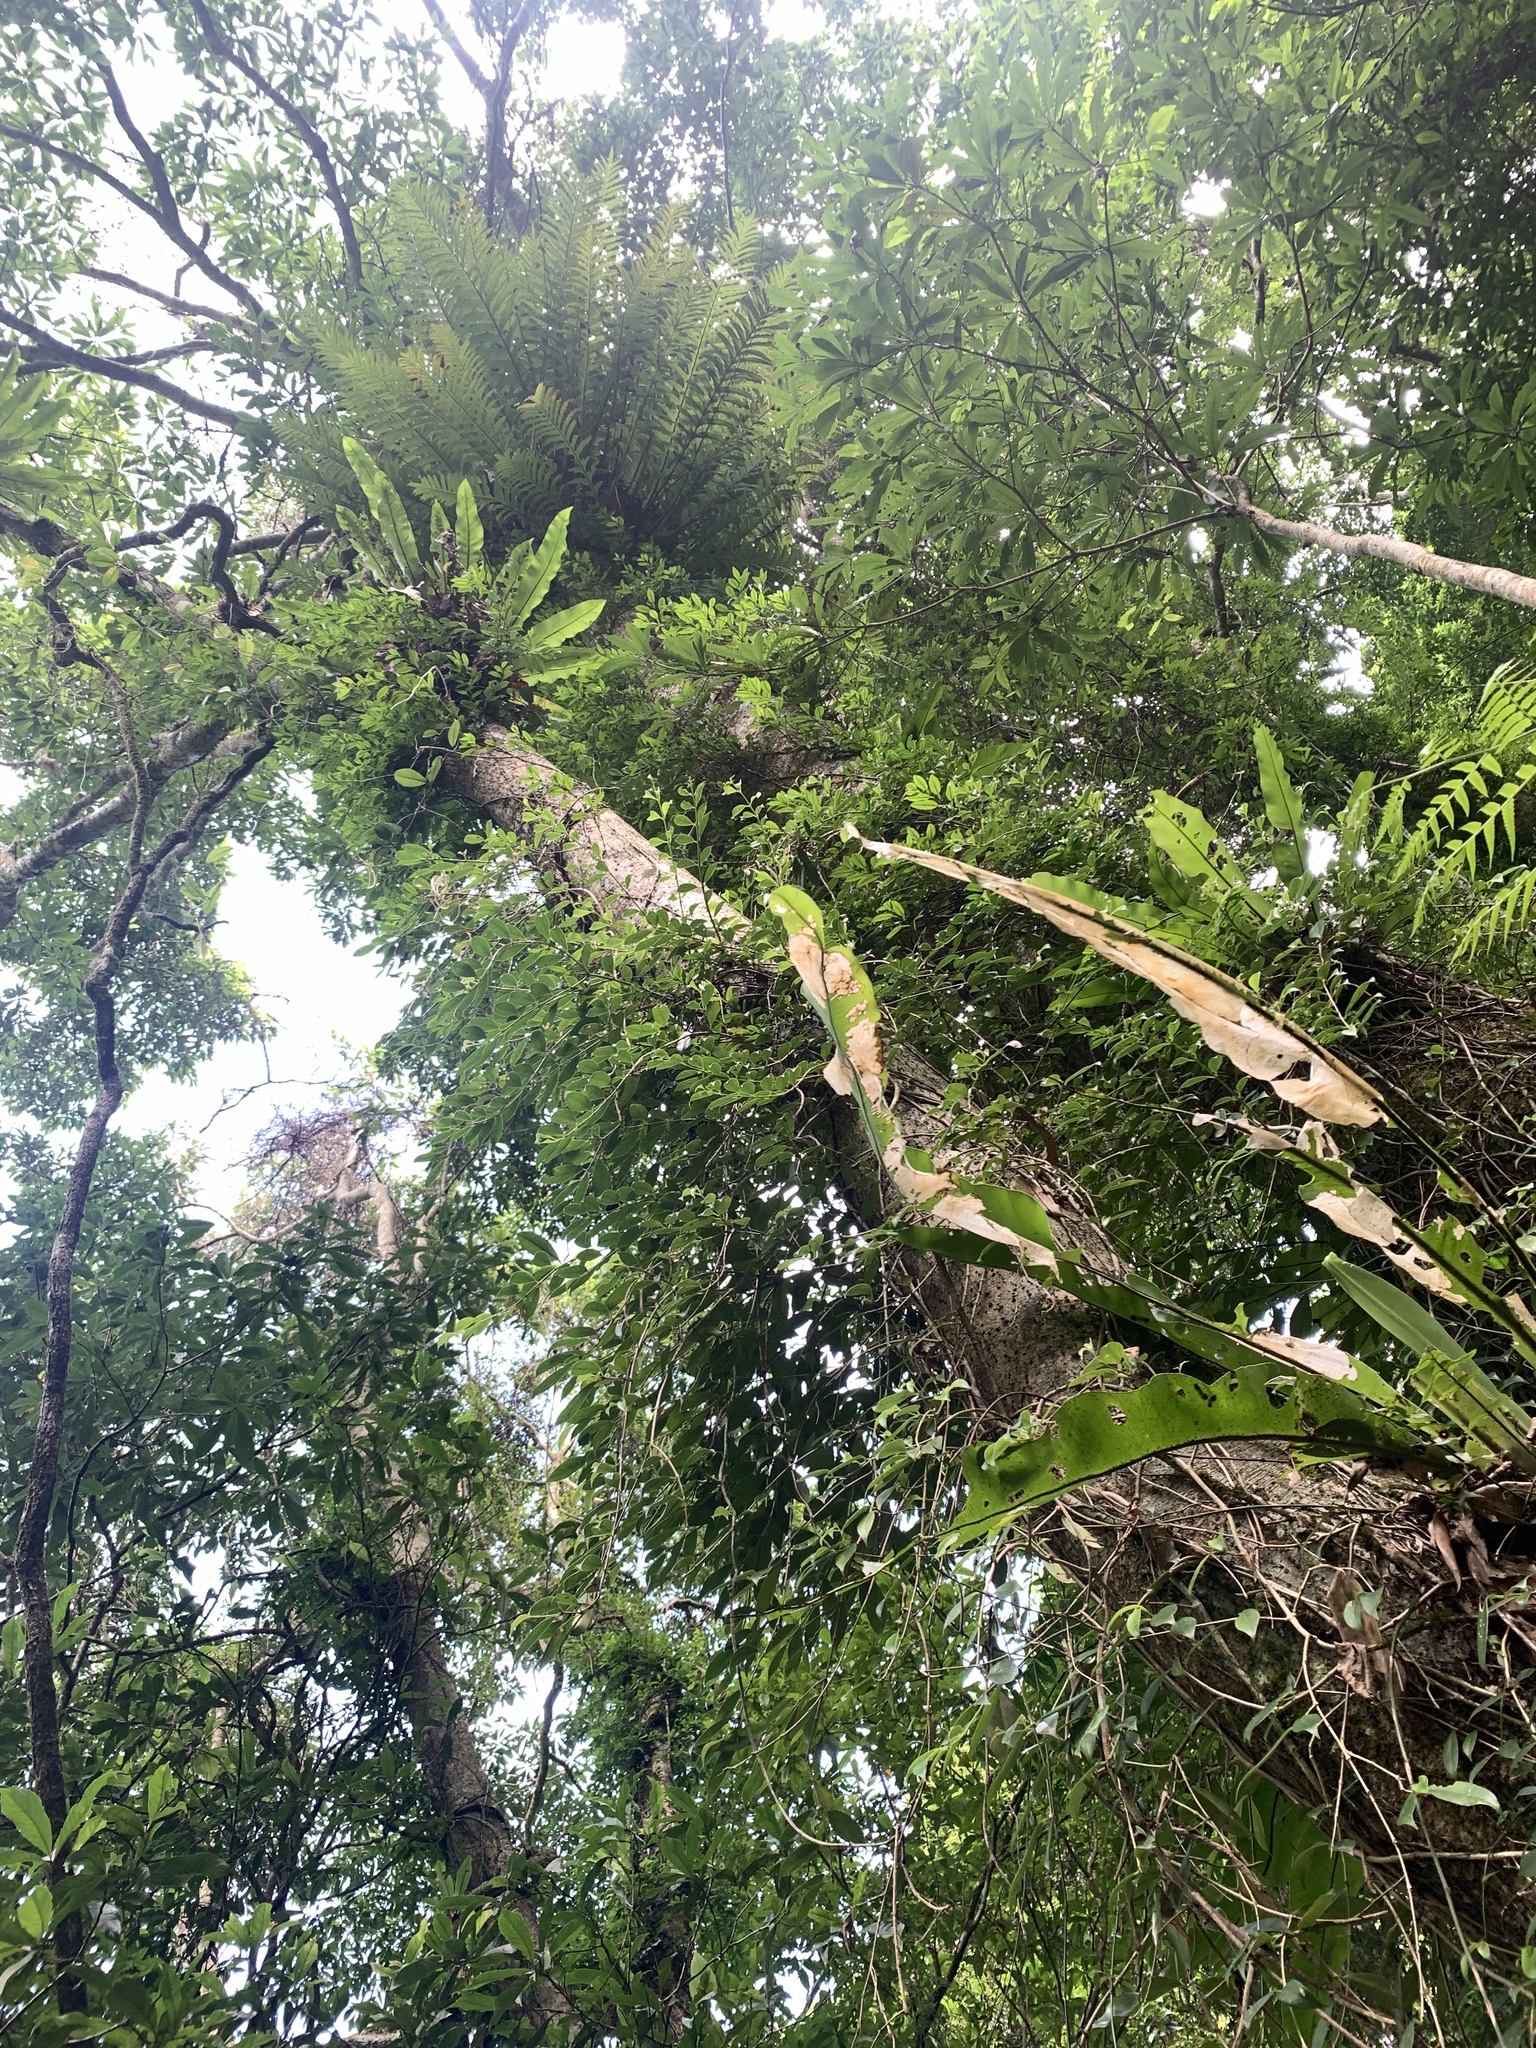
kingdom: Plantae
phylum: Tracheophyta
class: Magnoliopsida
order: Apiales
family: Araliaceae
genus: Heptapleurum
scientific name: Heptapleurum heptaphyllum
